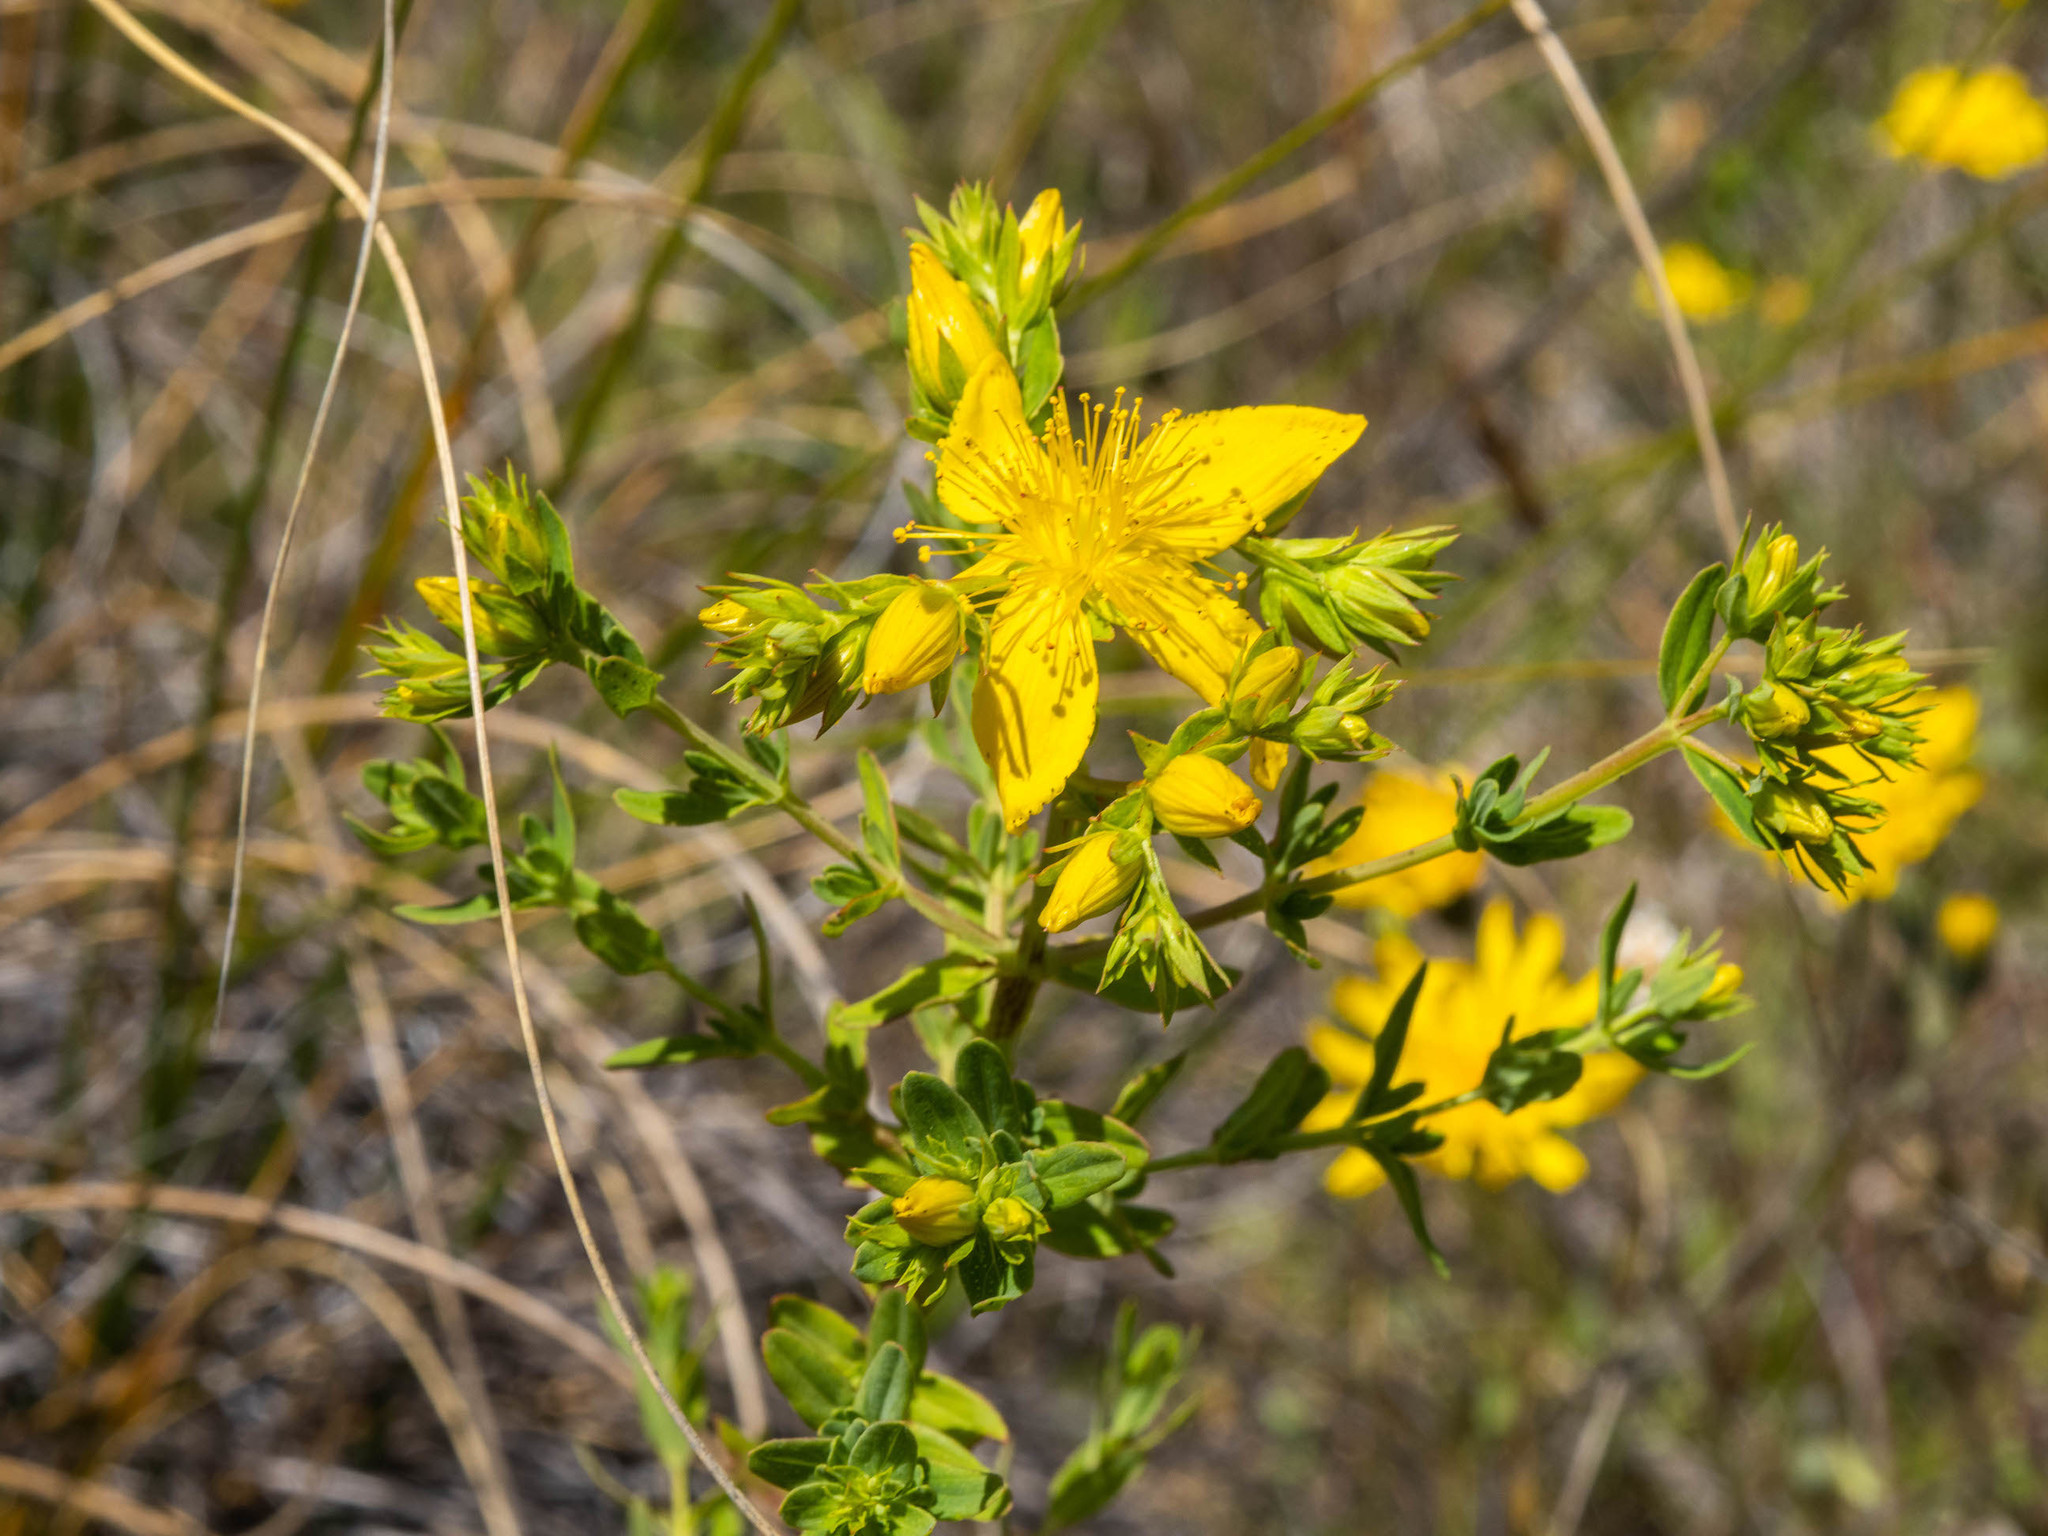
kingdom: Plantae
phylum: Tracheophyta
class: Magnoliopsida
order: Malpighiales
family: Hypericaceae
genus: Hypericum
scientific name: Hypericum perforatum
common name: Common st. johnswort
